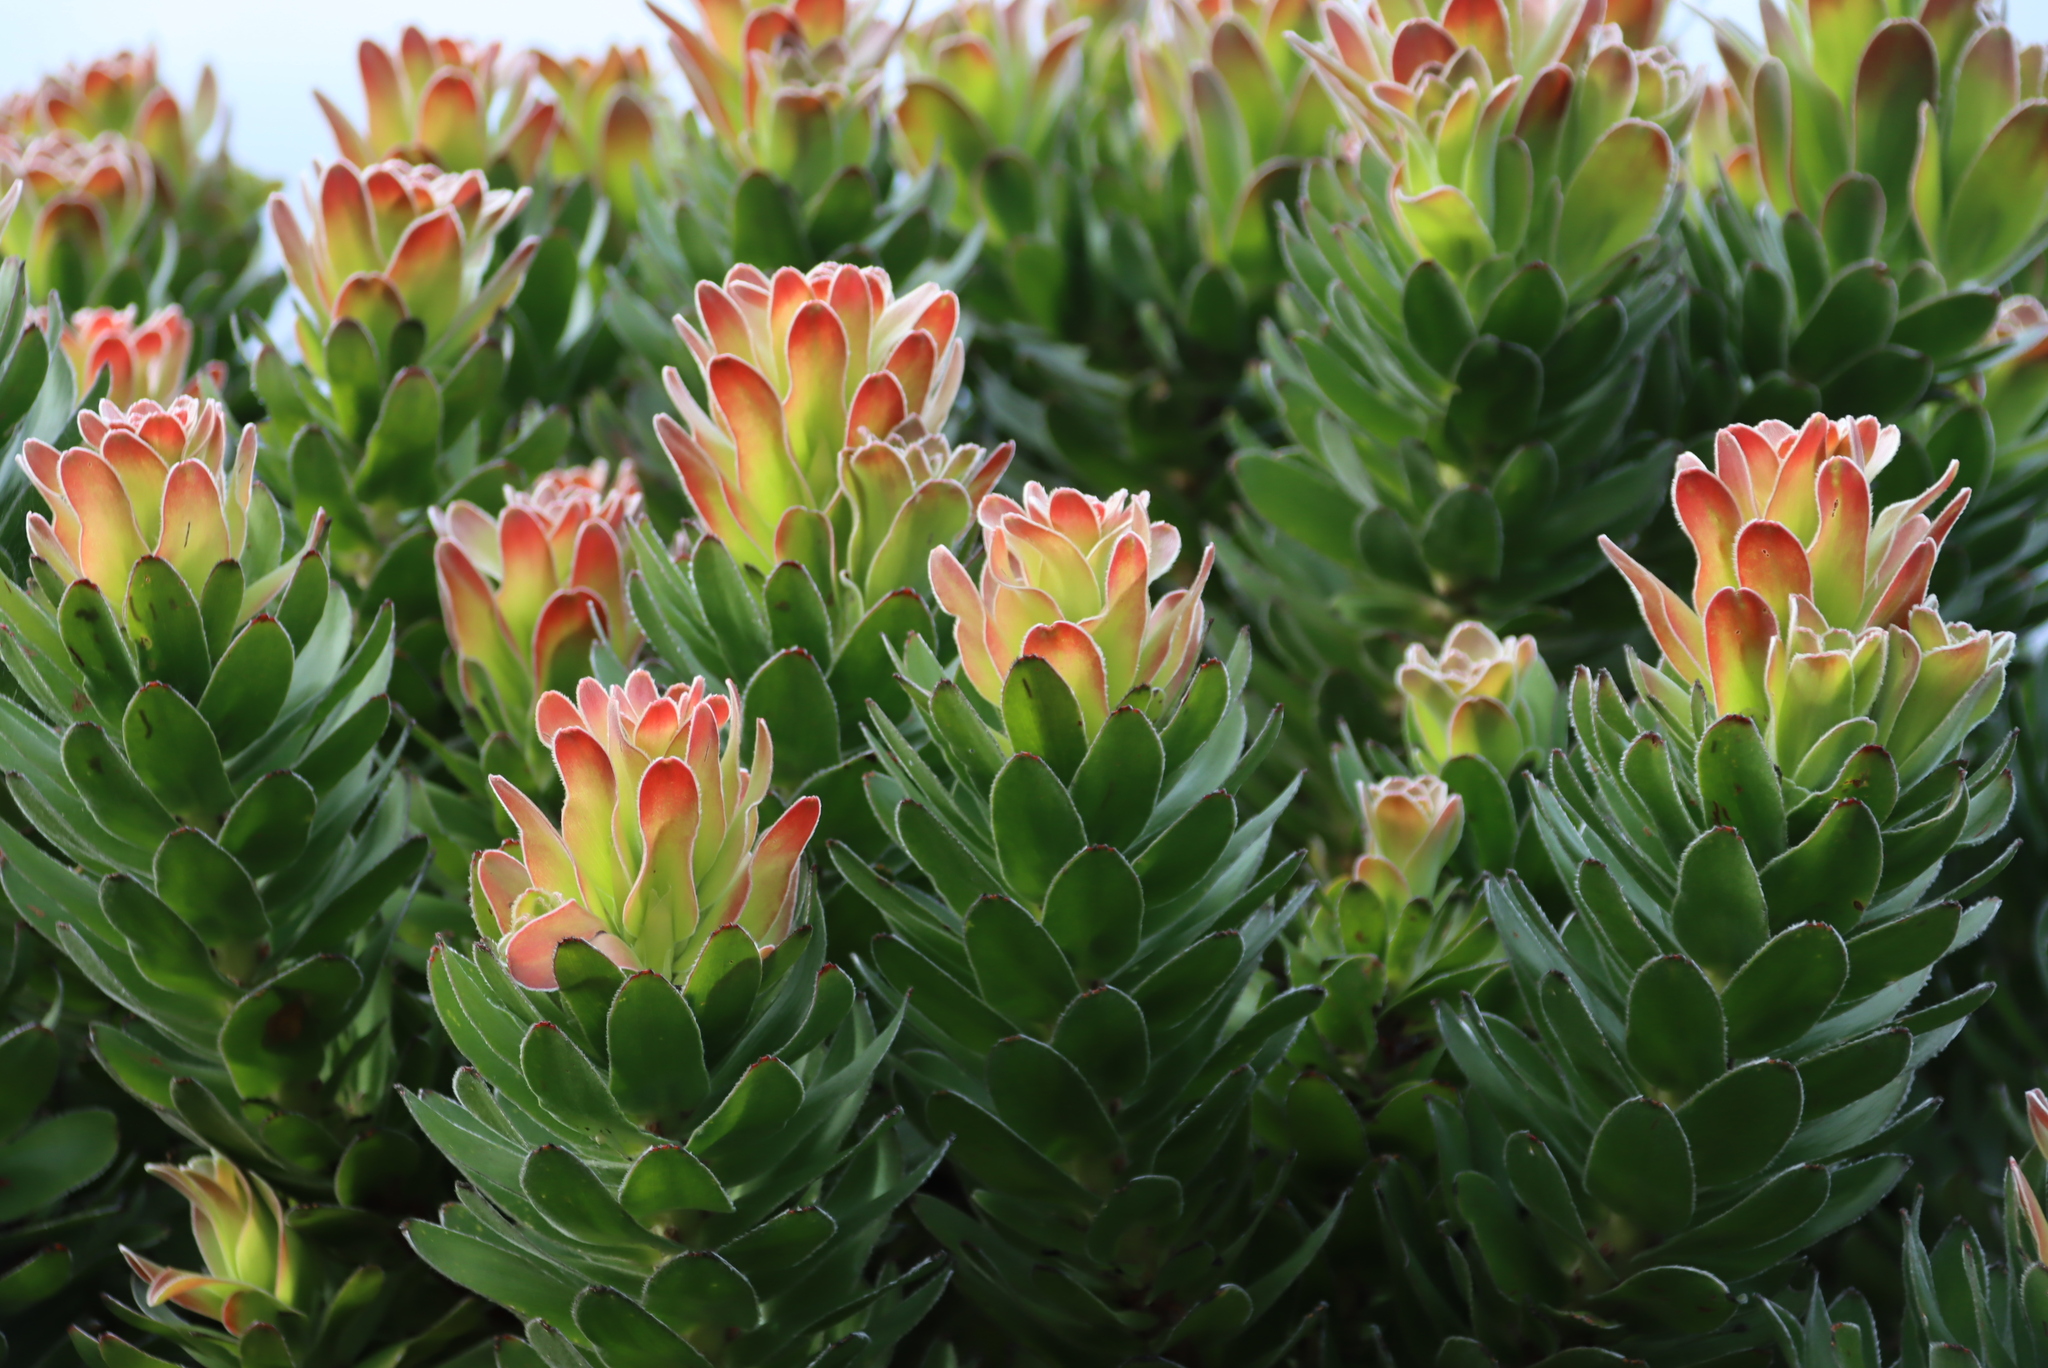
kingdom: Plantae
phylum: Tracheophyta
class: Magnoliopsida
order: Proteales
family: Proteaceae
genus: Mimetes
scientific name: Mimetes fimbriifolius
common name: Fringed bottlebrush
